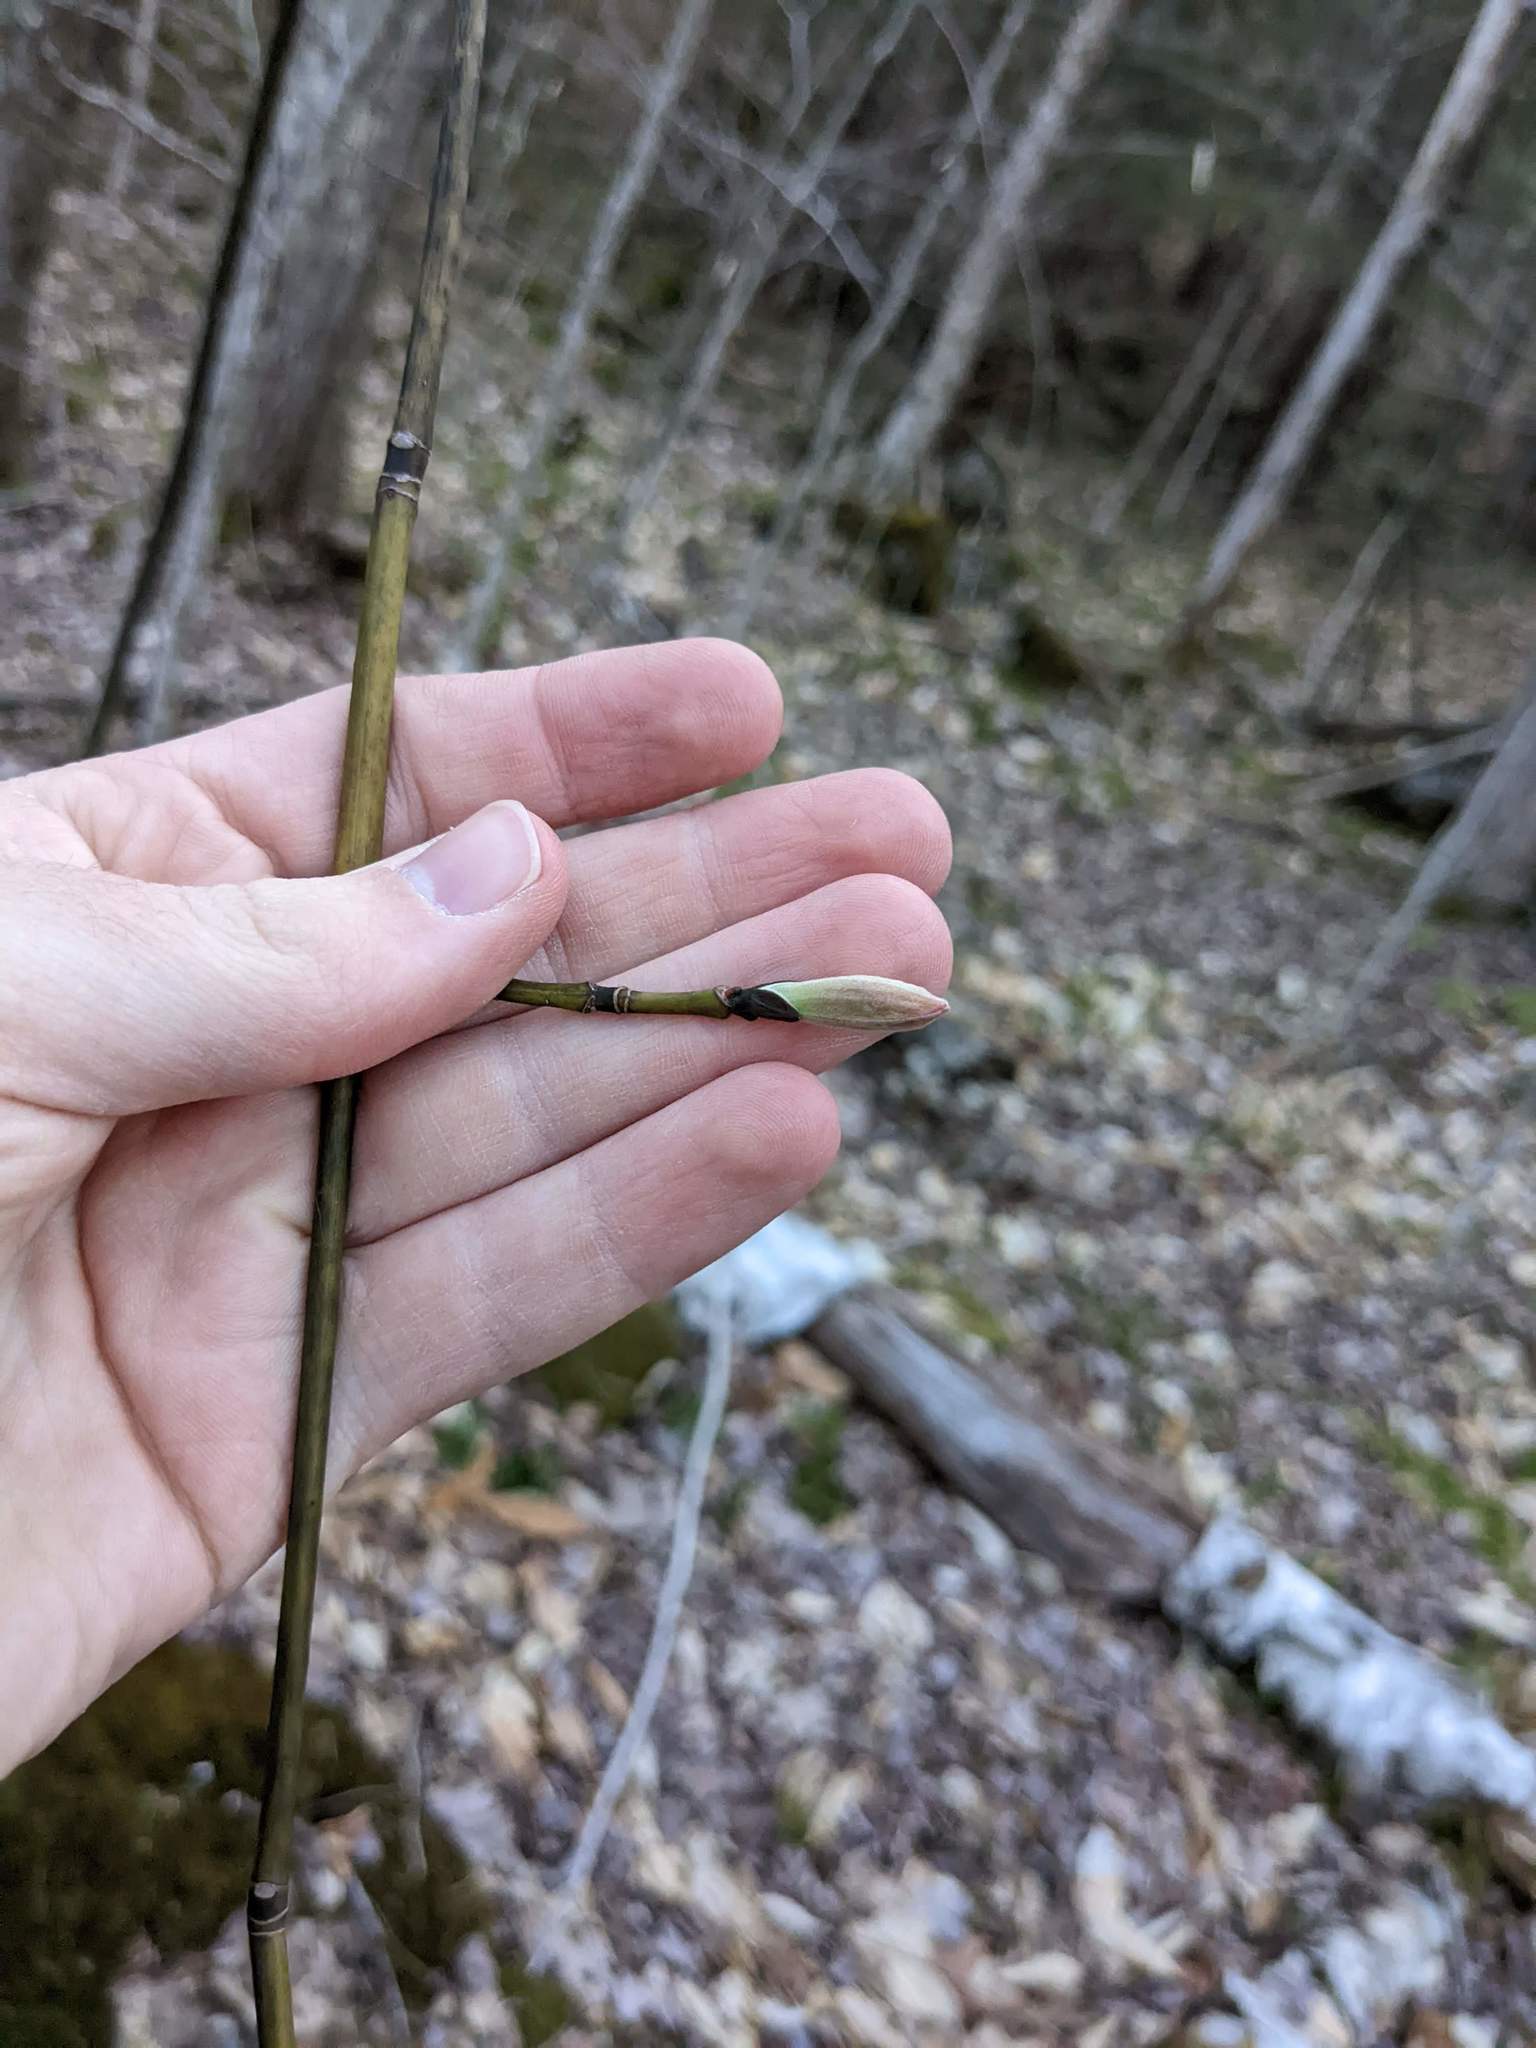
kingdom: Plantae
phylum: Tracheophyta
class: Magnoliopsida
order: Sapindales
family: Sapindaceae
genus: Acer
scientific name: Acer pensylvanicum
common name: Moosewood
